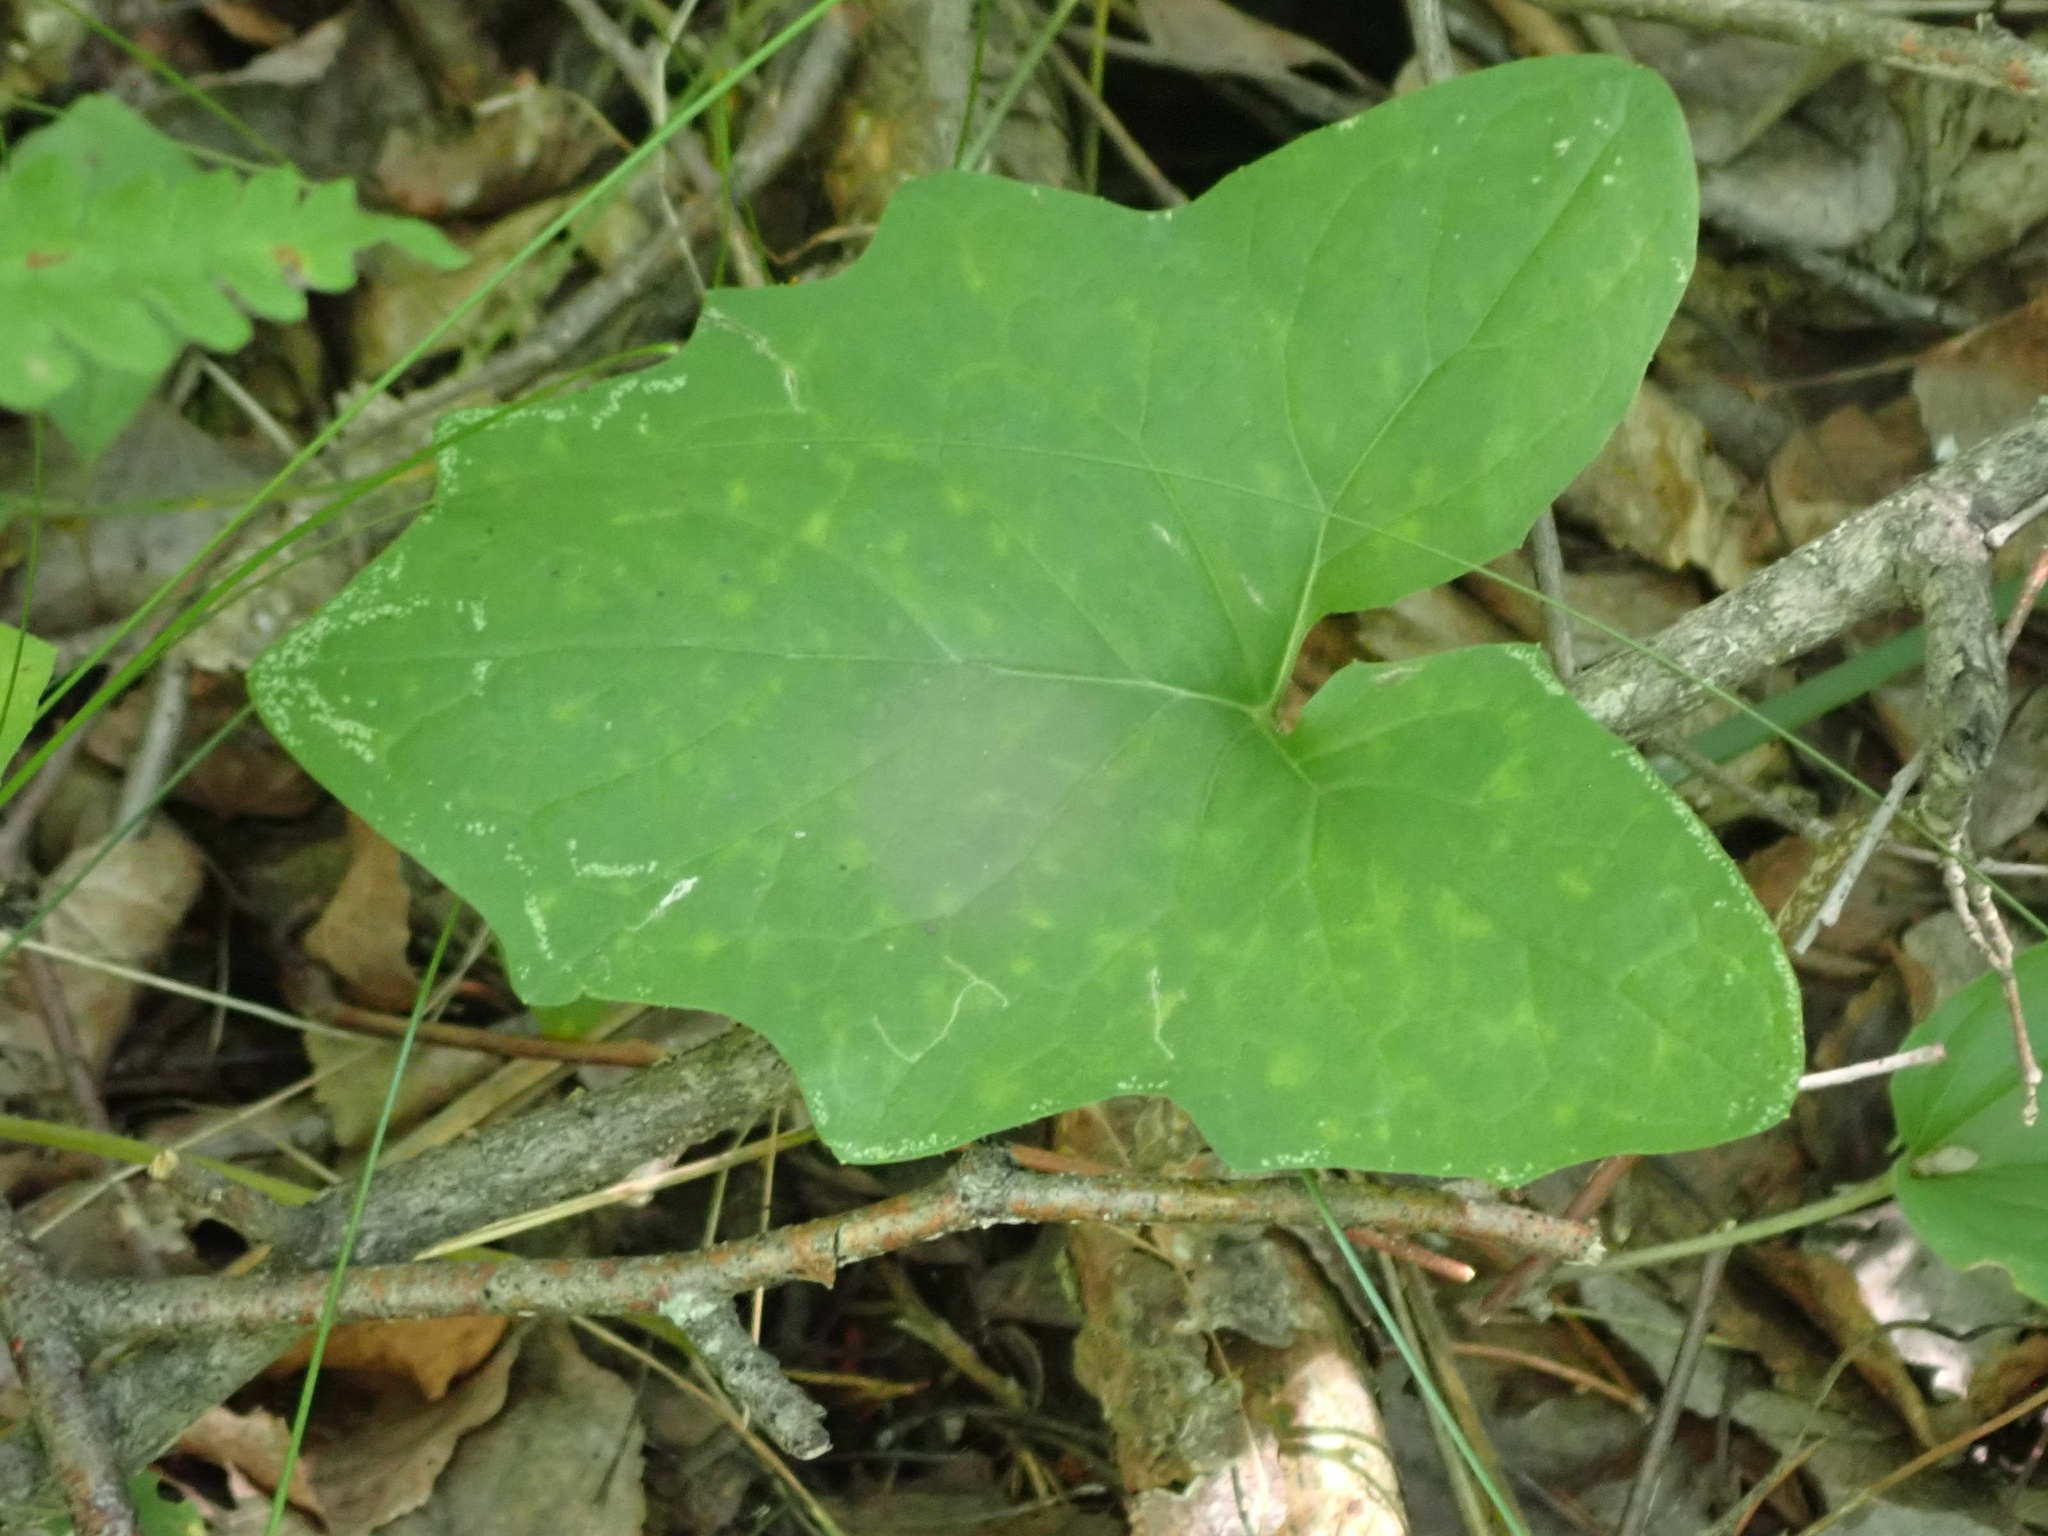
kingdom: Plantae
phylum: Tracheophyta
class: Magnoliopsida
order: Asterales
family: Asteraceae
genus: Nabalus
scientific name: Nabalus albus
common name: White rattlesnakeroot
